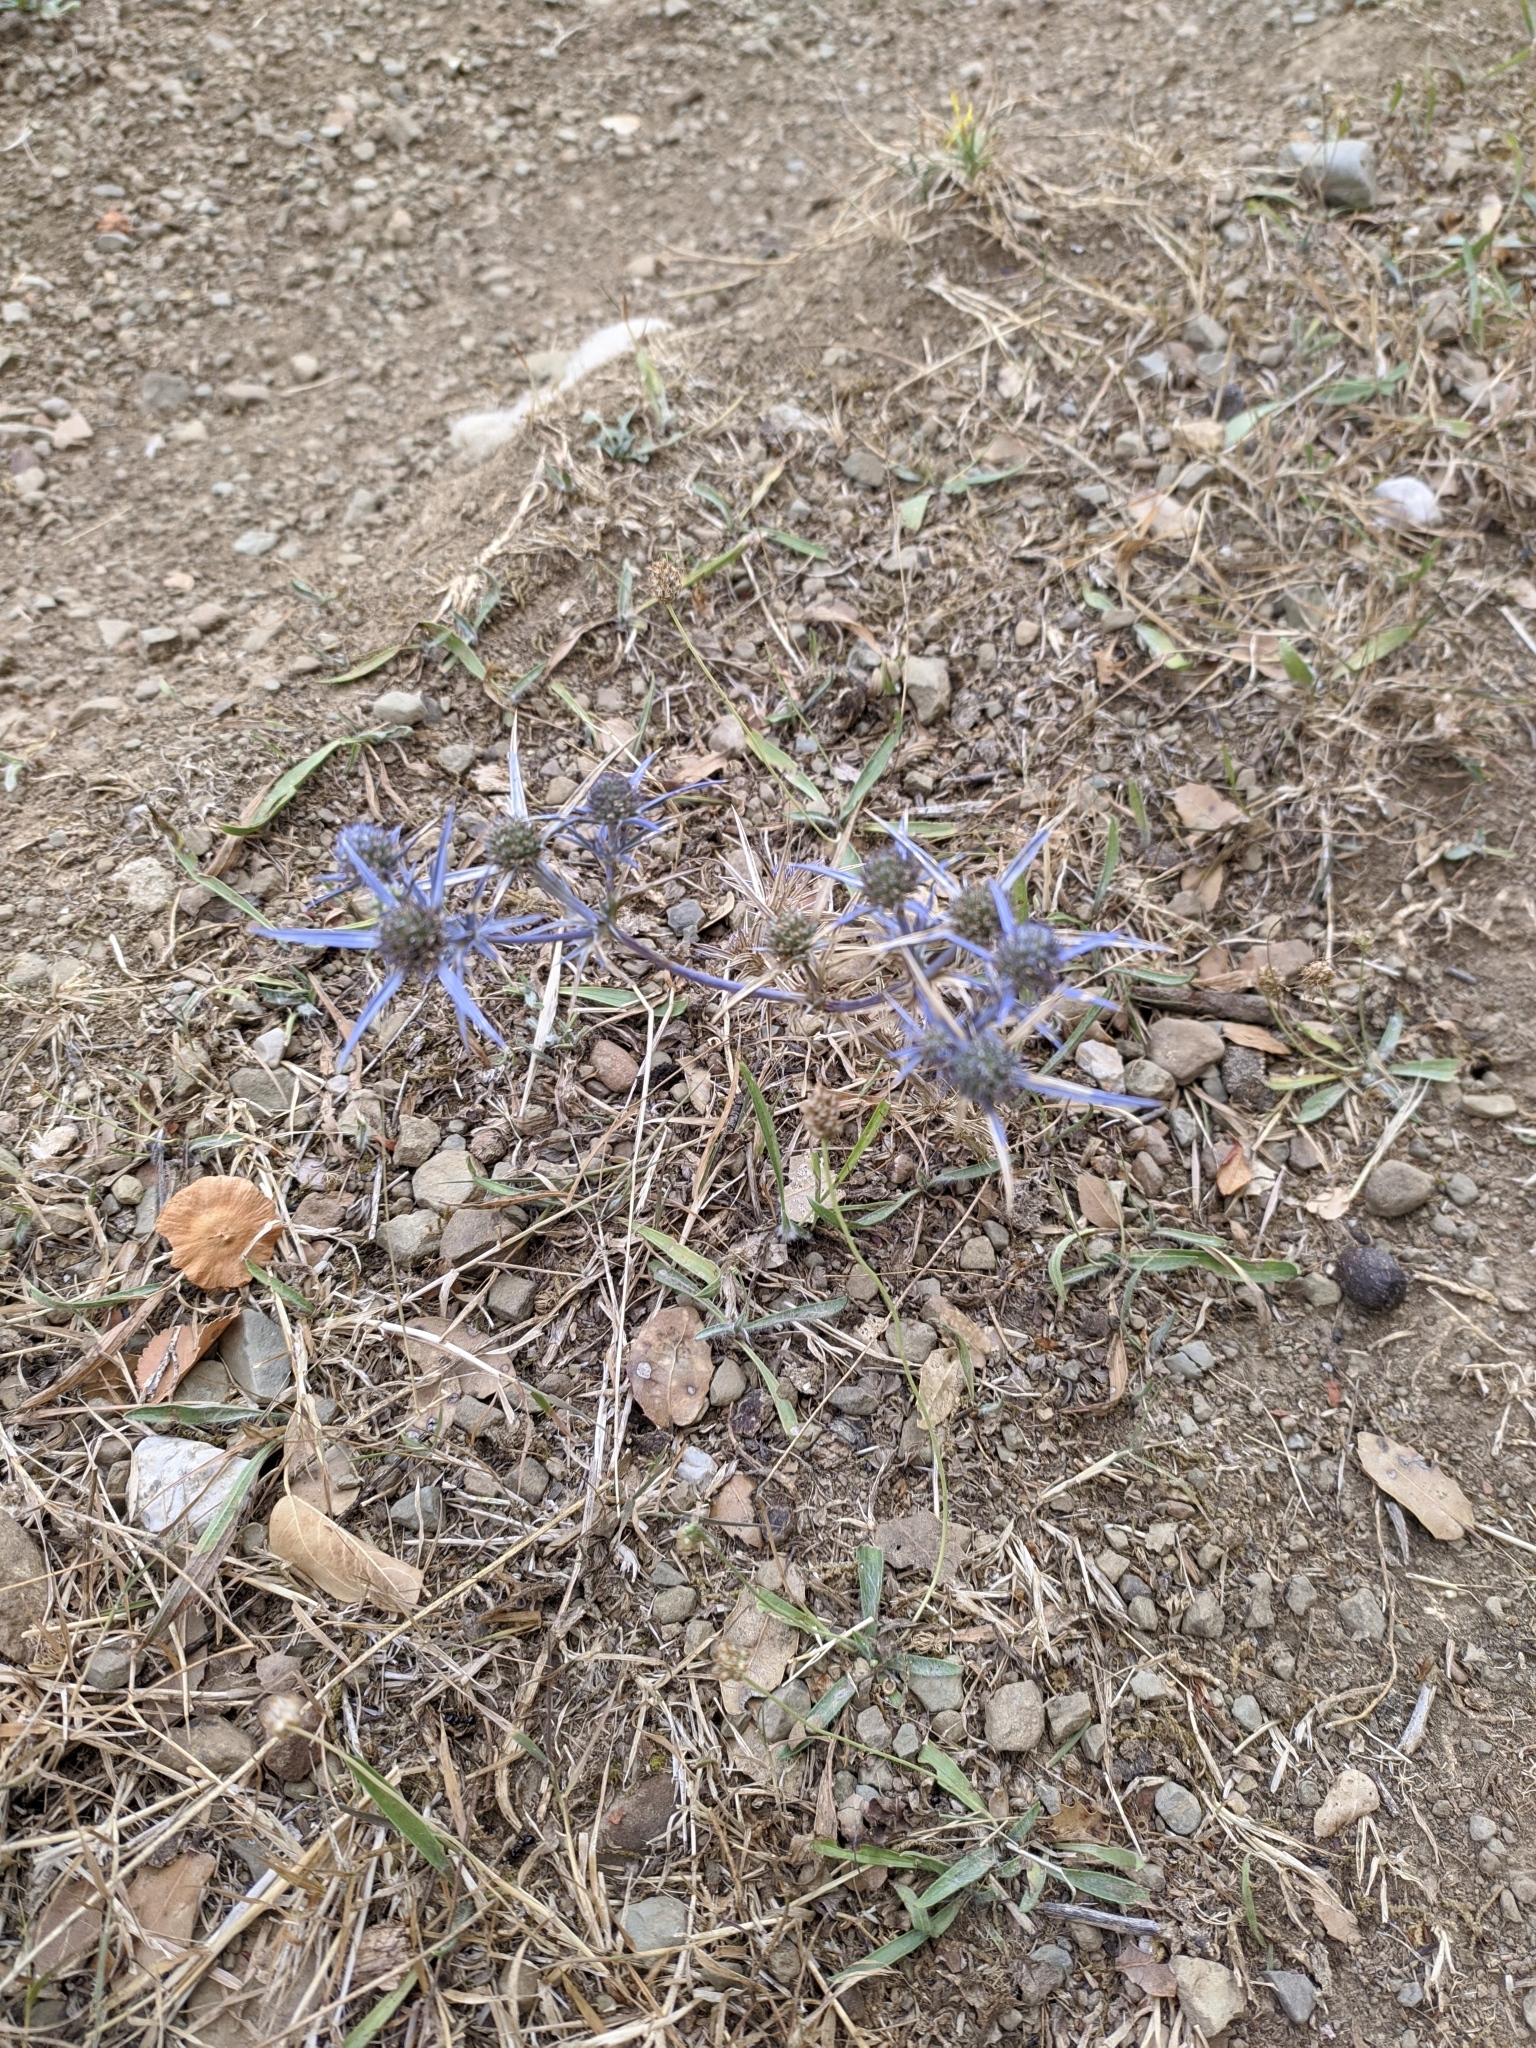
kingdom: Plantae
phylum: Tracheophyta
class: Magnoliopsida
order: Apiales
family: Apiaceae
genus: Eryngium
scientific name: Eryngium creticum
